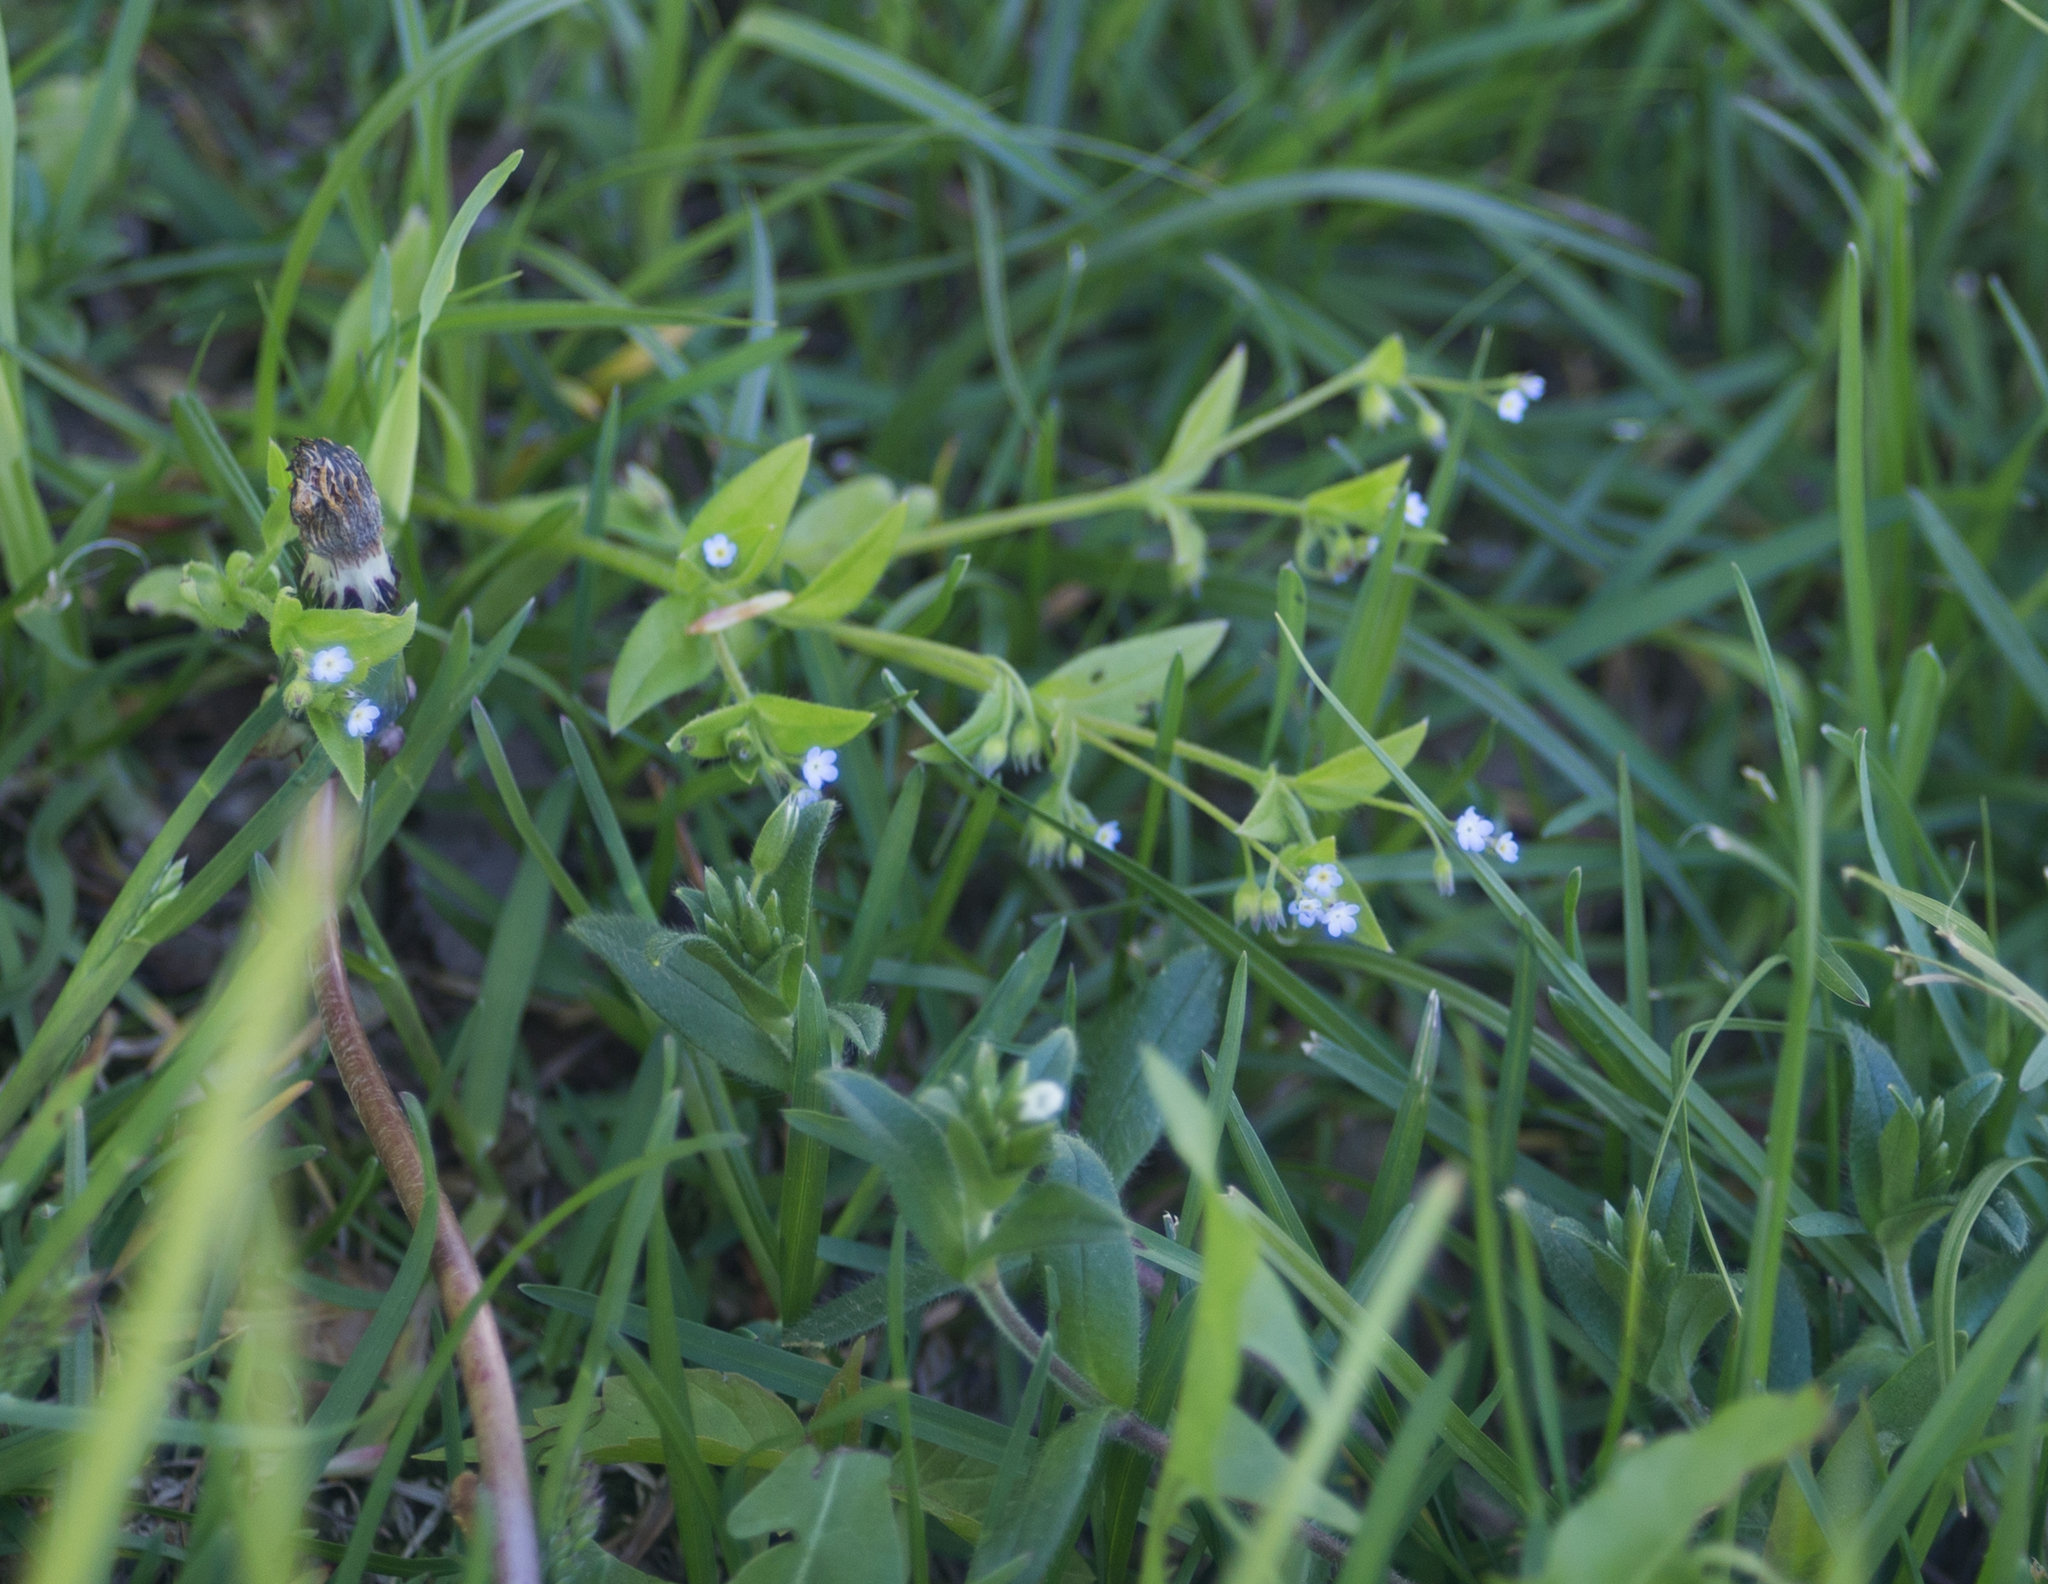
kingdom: Plantae
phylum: Tracheophyta
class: Magnoliopsida
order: Boraginales
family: Boraginaceae
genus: Myosotis
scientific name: Myosotis sparsiflora
